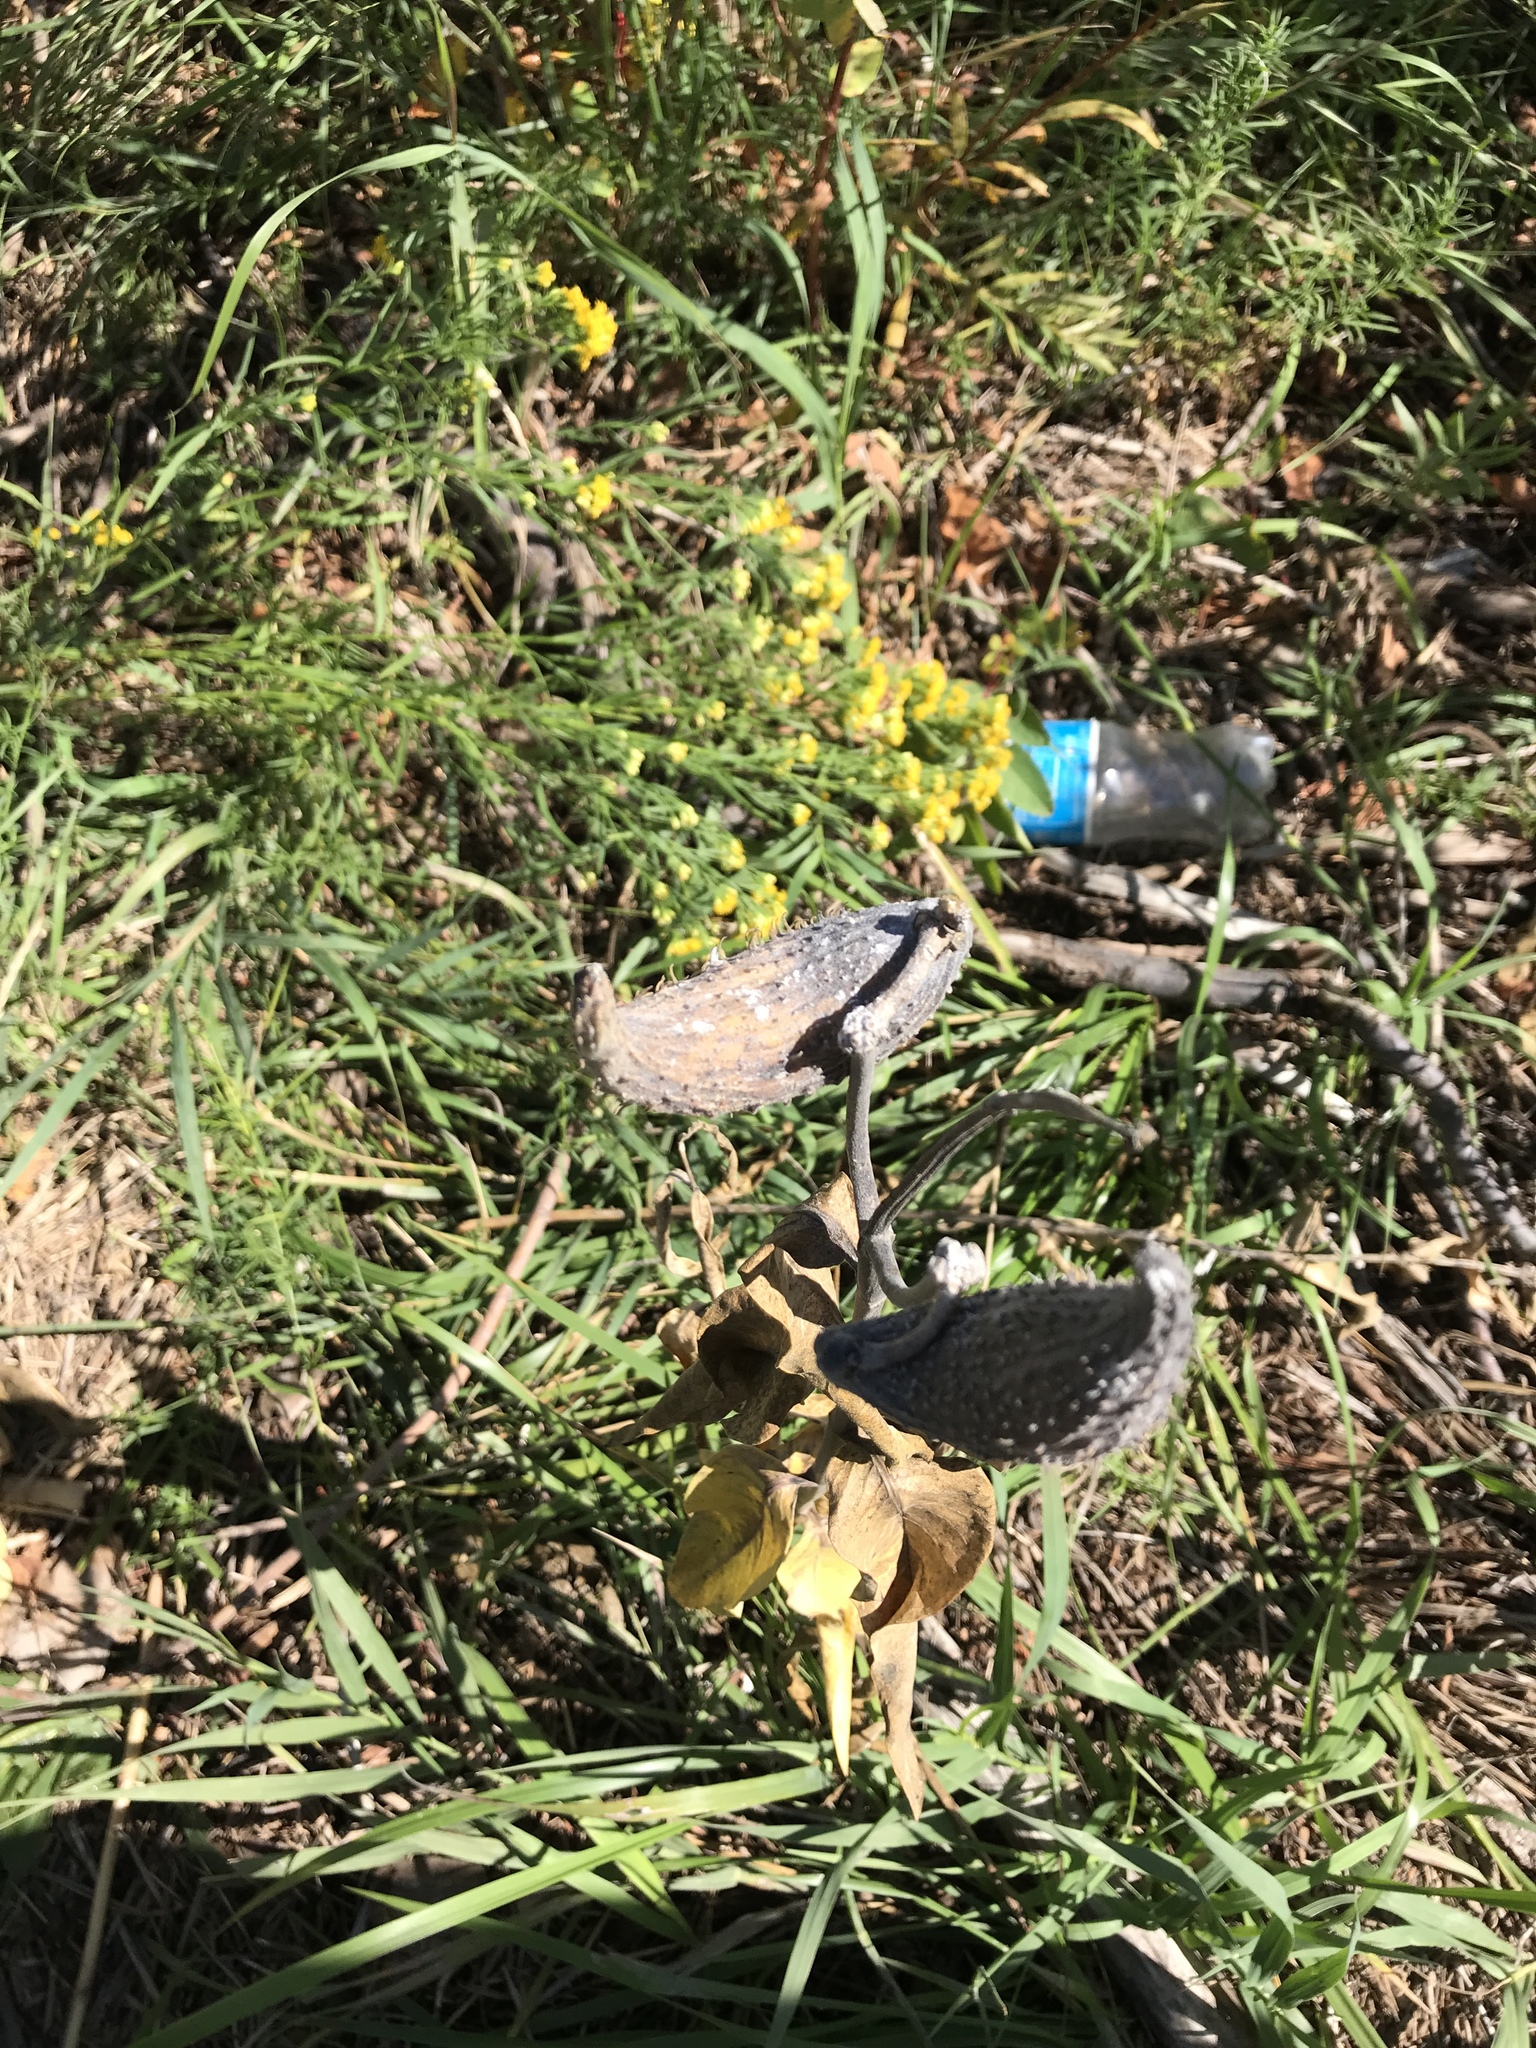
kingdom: Plantae
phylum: Tracheophyta
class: Magnoliopsida
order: Gentianales
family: Apocynaceae
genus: Asclepias
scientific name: Asclepias speciosa
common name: Showy milkweed
